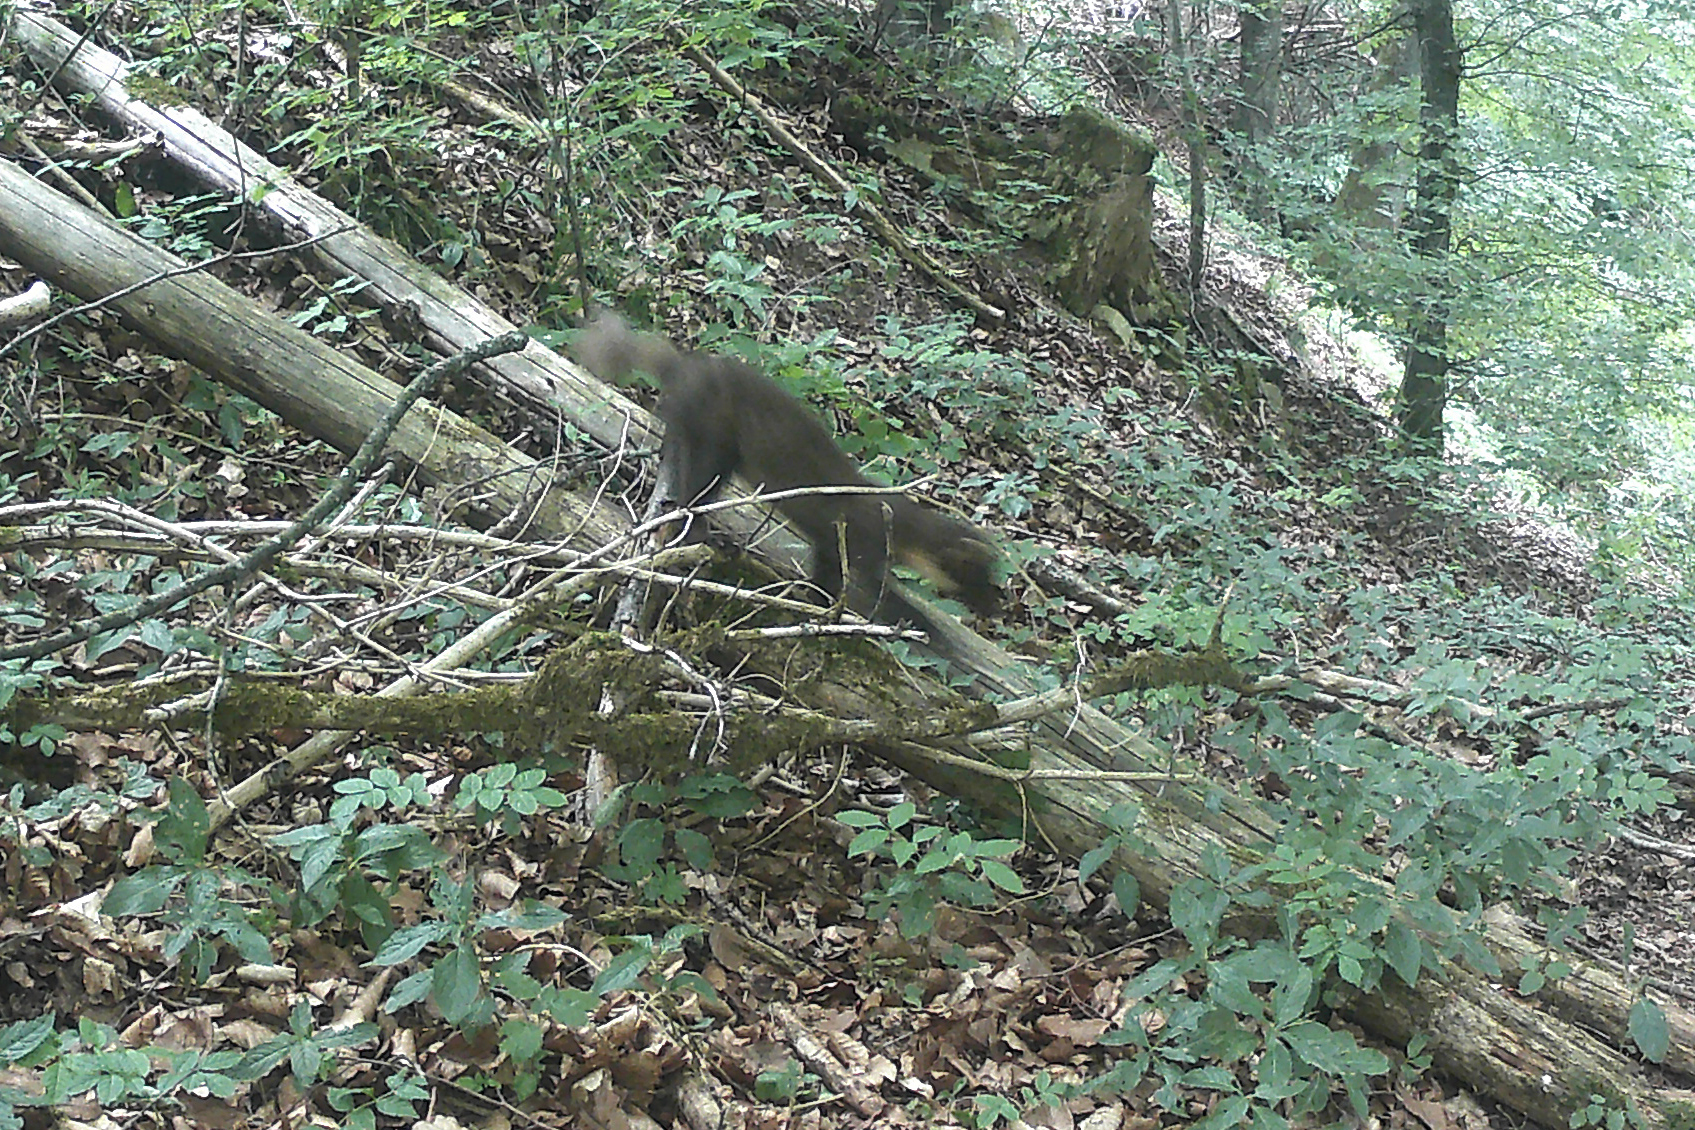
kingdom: Animalia
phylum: Chordata
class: Mammalia
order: Carnivora
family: Mustelidae
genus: Martes
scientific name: Martes martes
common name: European pine marten
